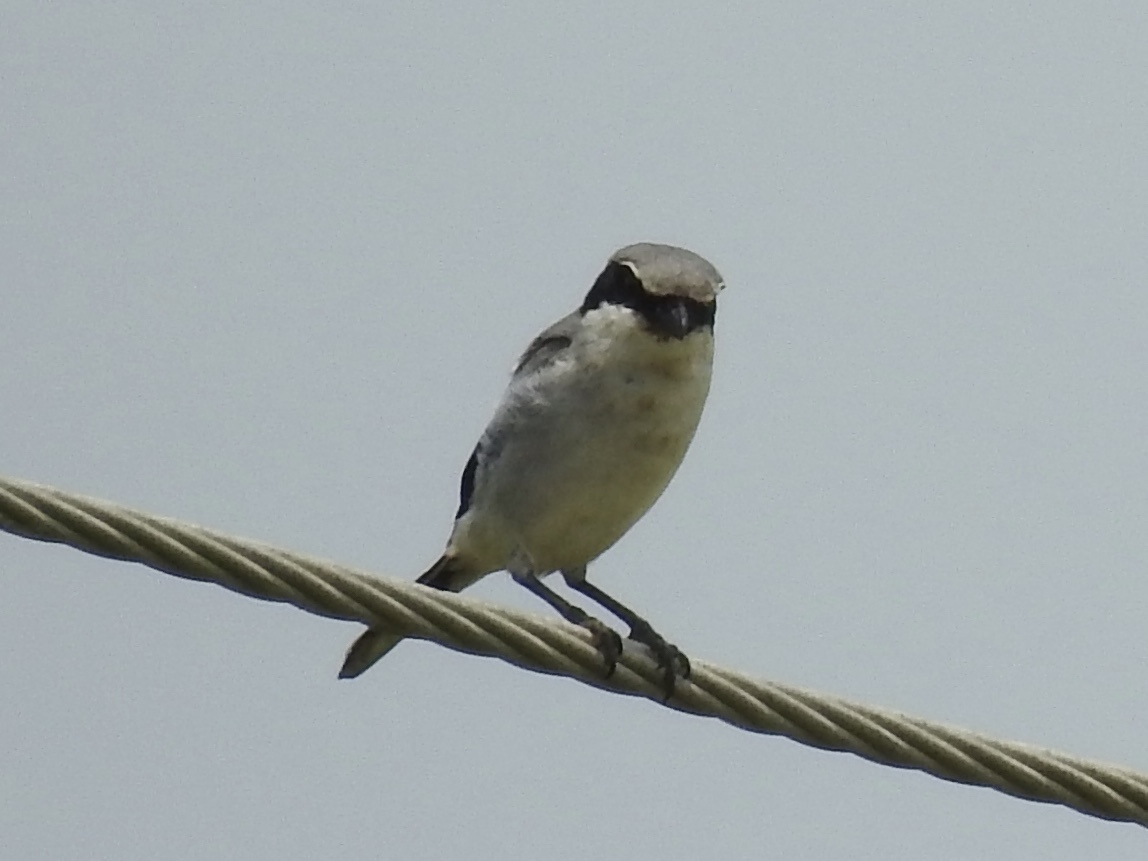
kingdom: Animalia
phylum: Chordata
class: Aves
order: Passeriformes
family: Laniidae
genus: Lanius
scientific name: Lanius ludovicianus
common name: Loggerhead shrike
